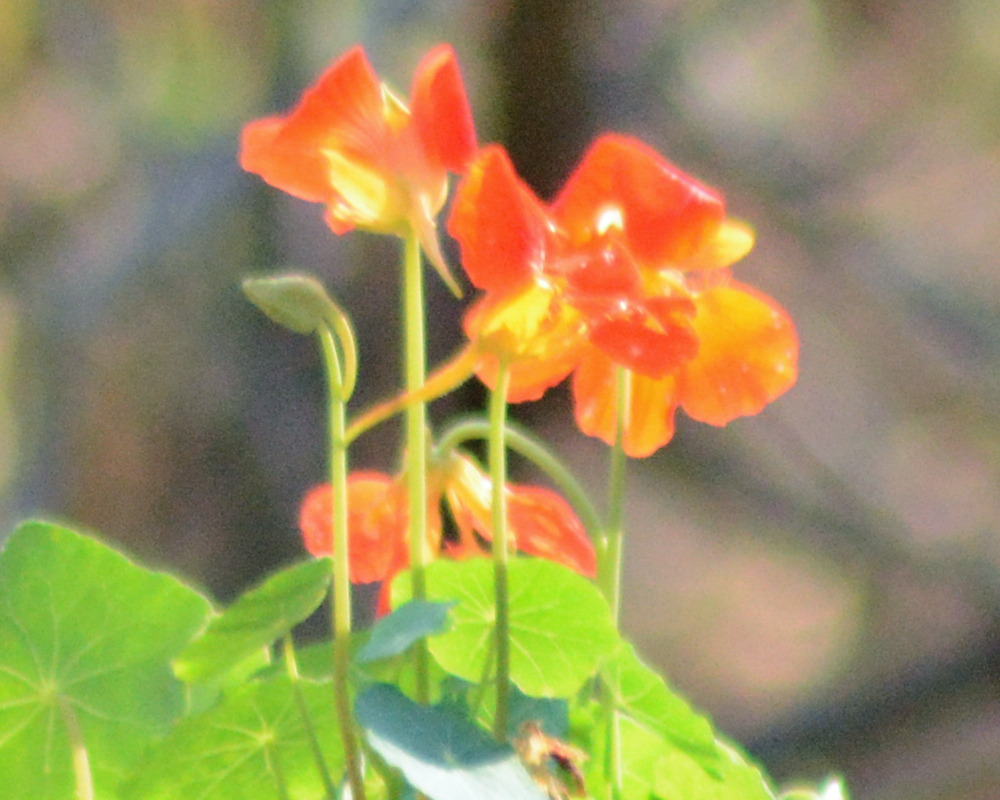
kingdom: Plantae
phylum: Tracheophyta
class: Magnoliopsida
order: Brassicales
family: Tropaeolaceae
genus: Tropaeolum
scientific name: Tropaeolum majus
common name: Nasturtium
